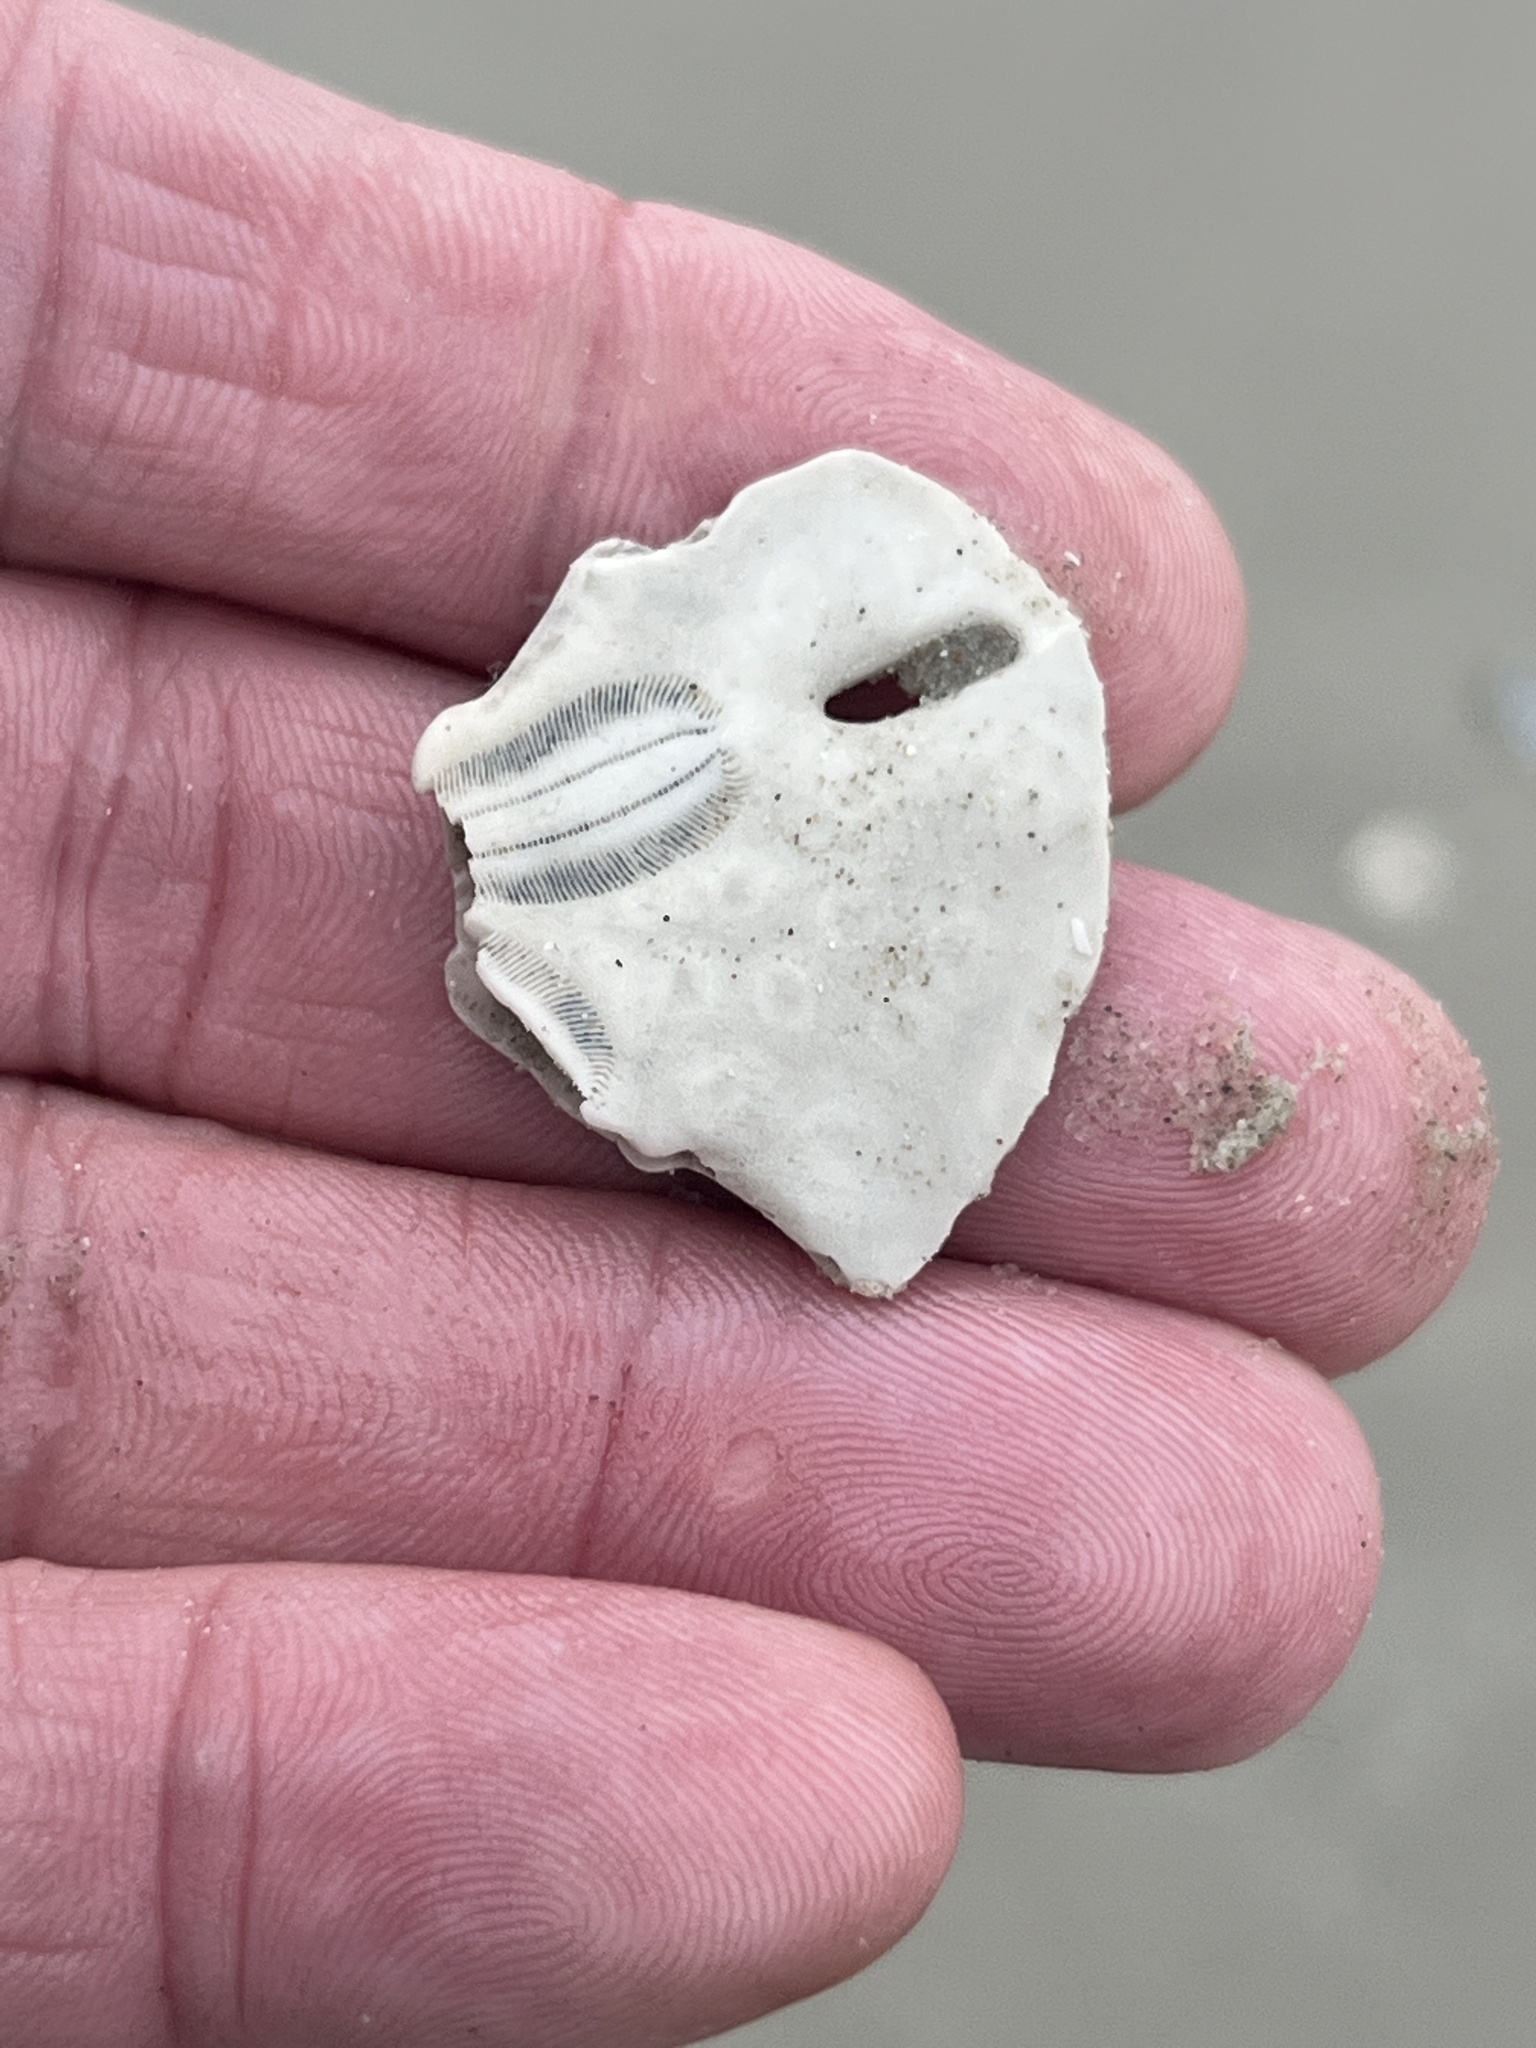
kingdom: Animalia
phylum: Echinodermata
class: Echinoidea
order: Echinolampadacea
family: Mellitidae
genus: Mellita
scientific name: Mellita quinquiesperforata
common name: Sand dollar
